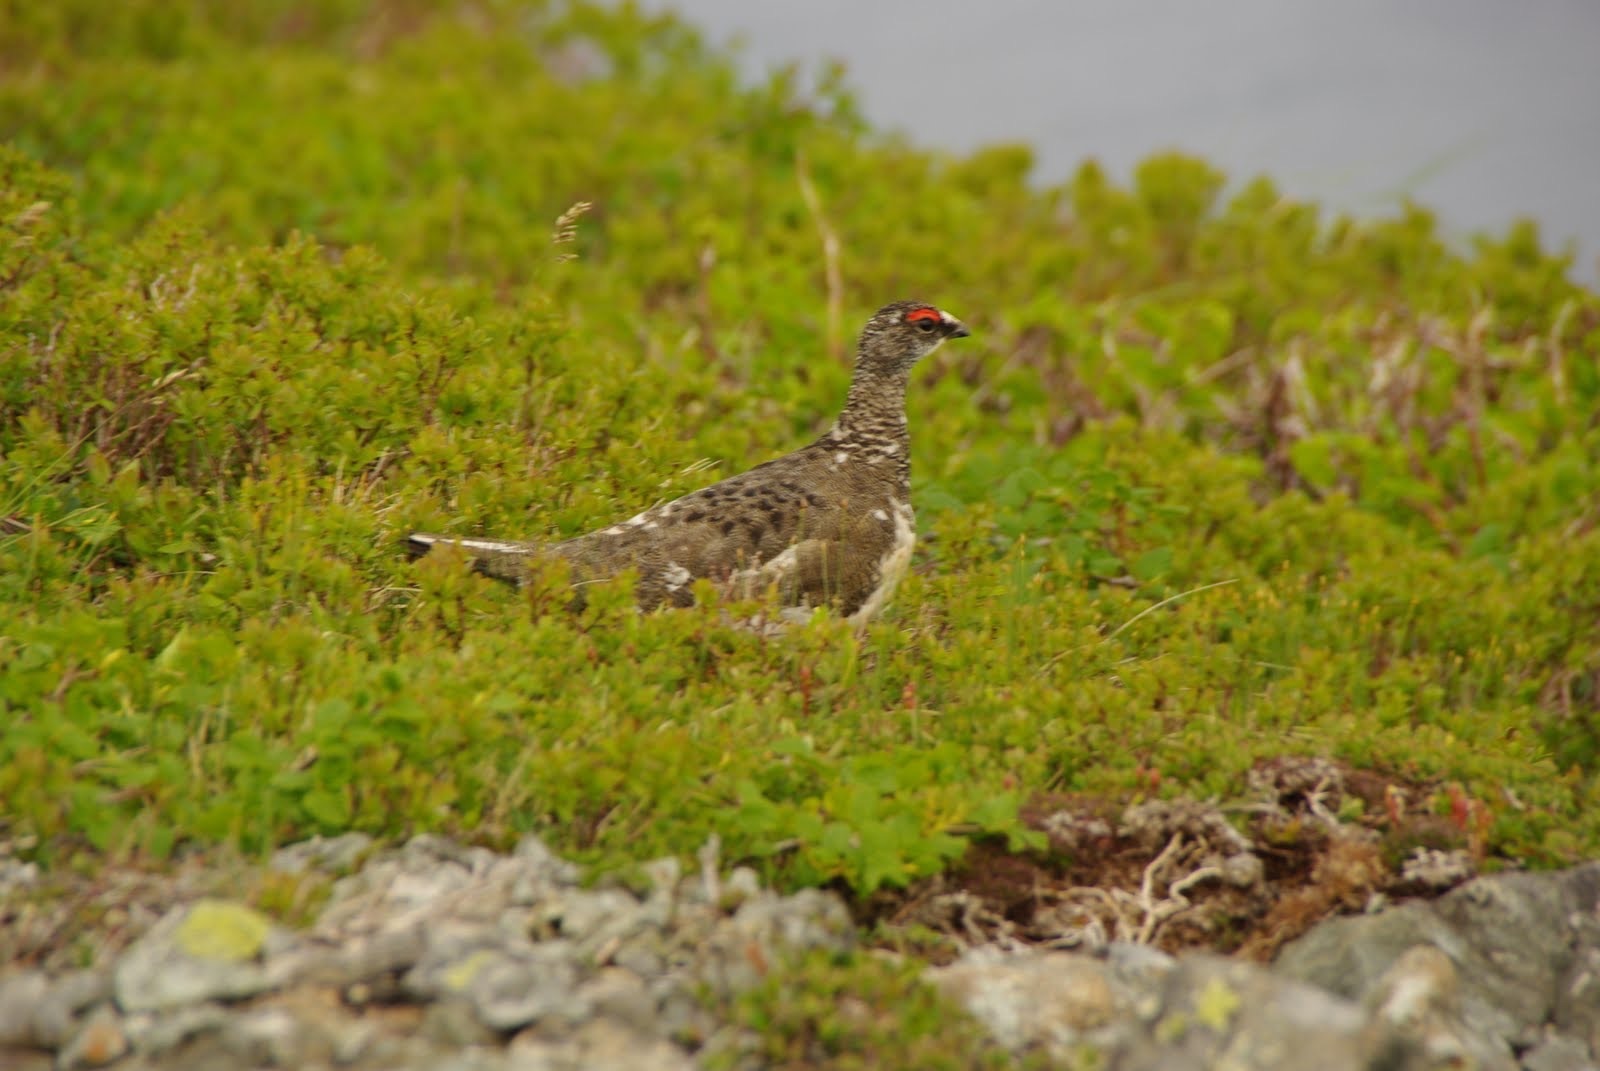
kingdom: Animalia
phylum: Chordata
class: Aves
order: Galliformes
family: Phasianidae
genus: Lagopus
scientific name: Lagopus muta
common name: Rock ptarmigan
